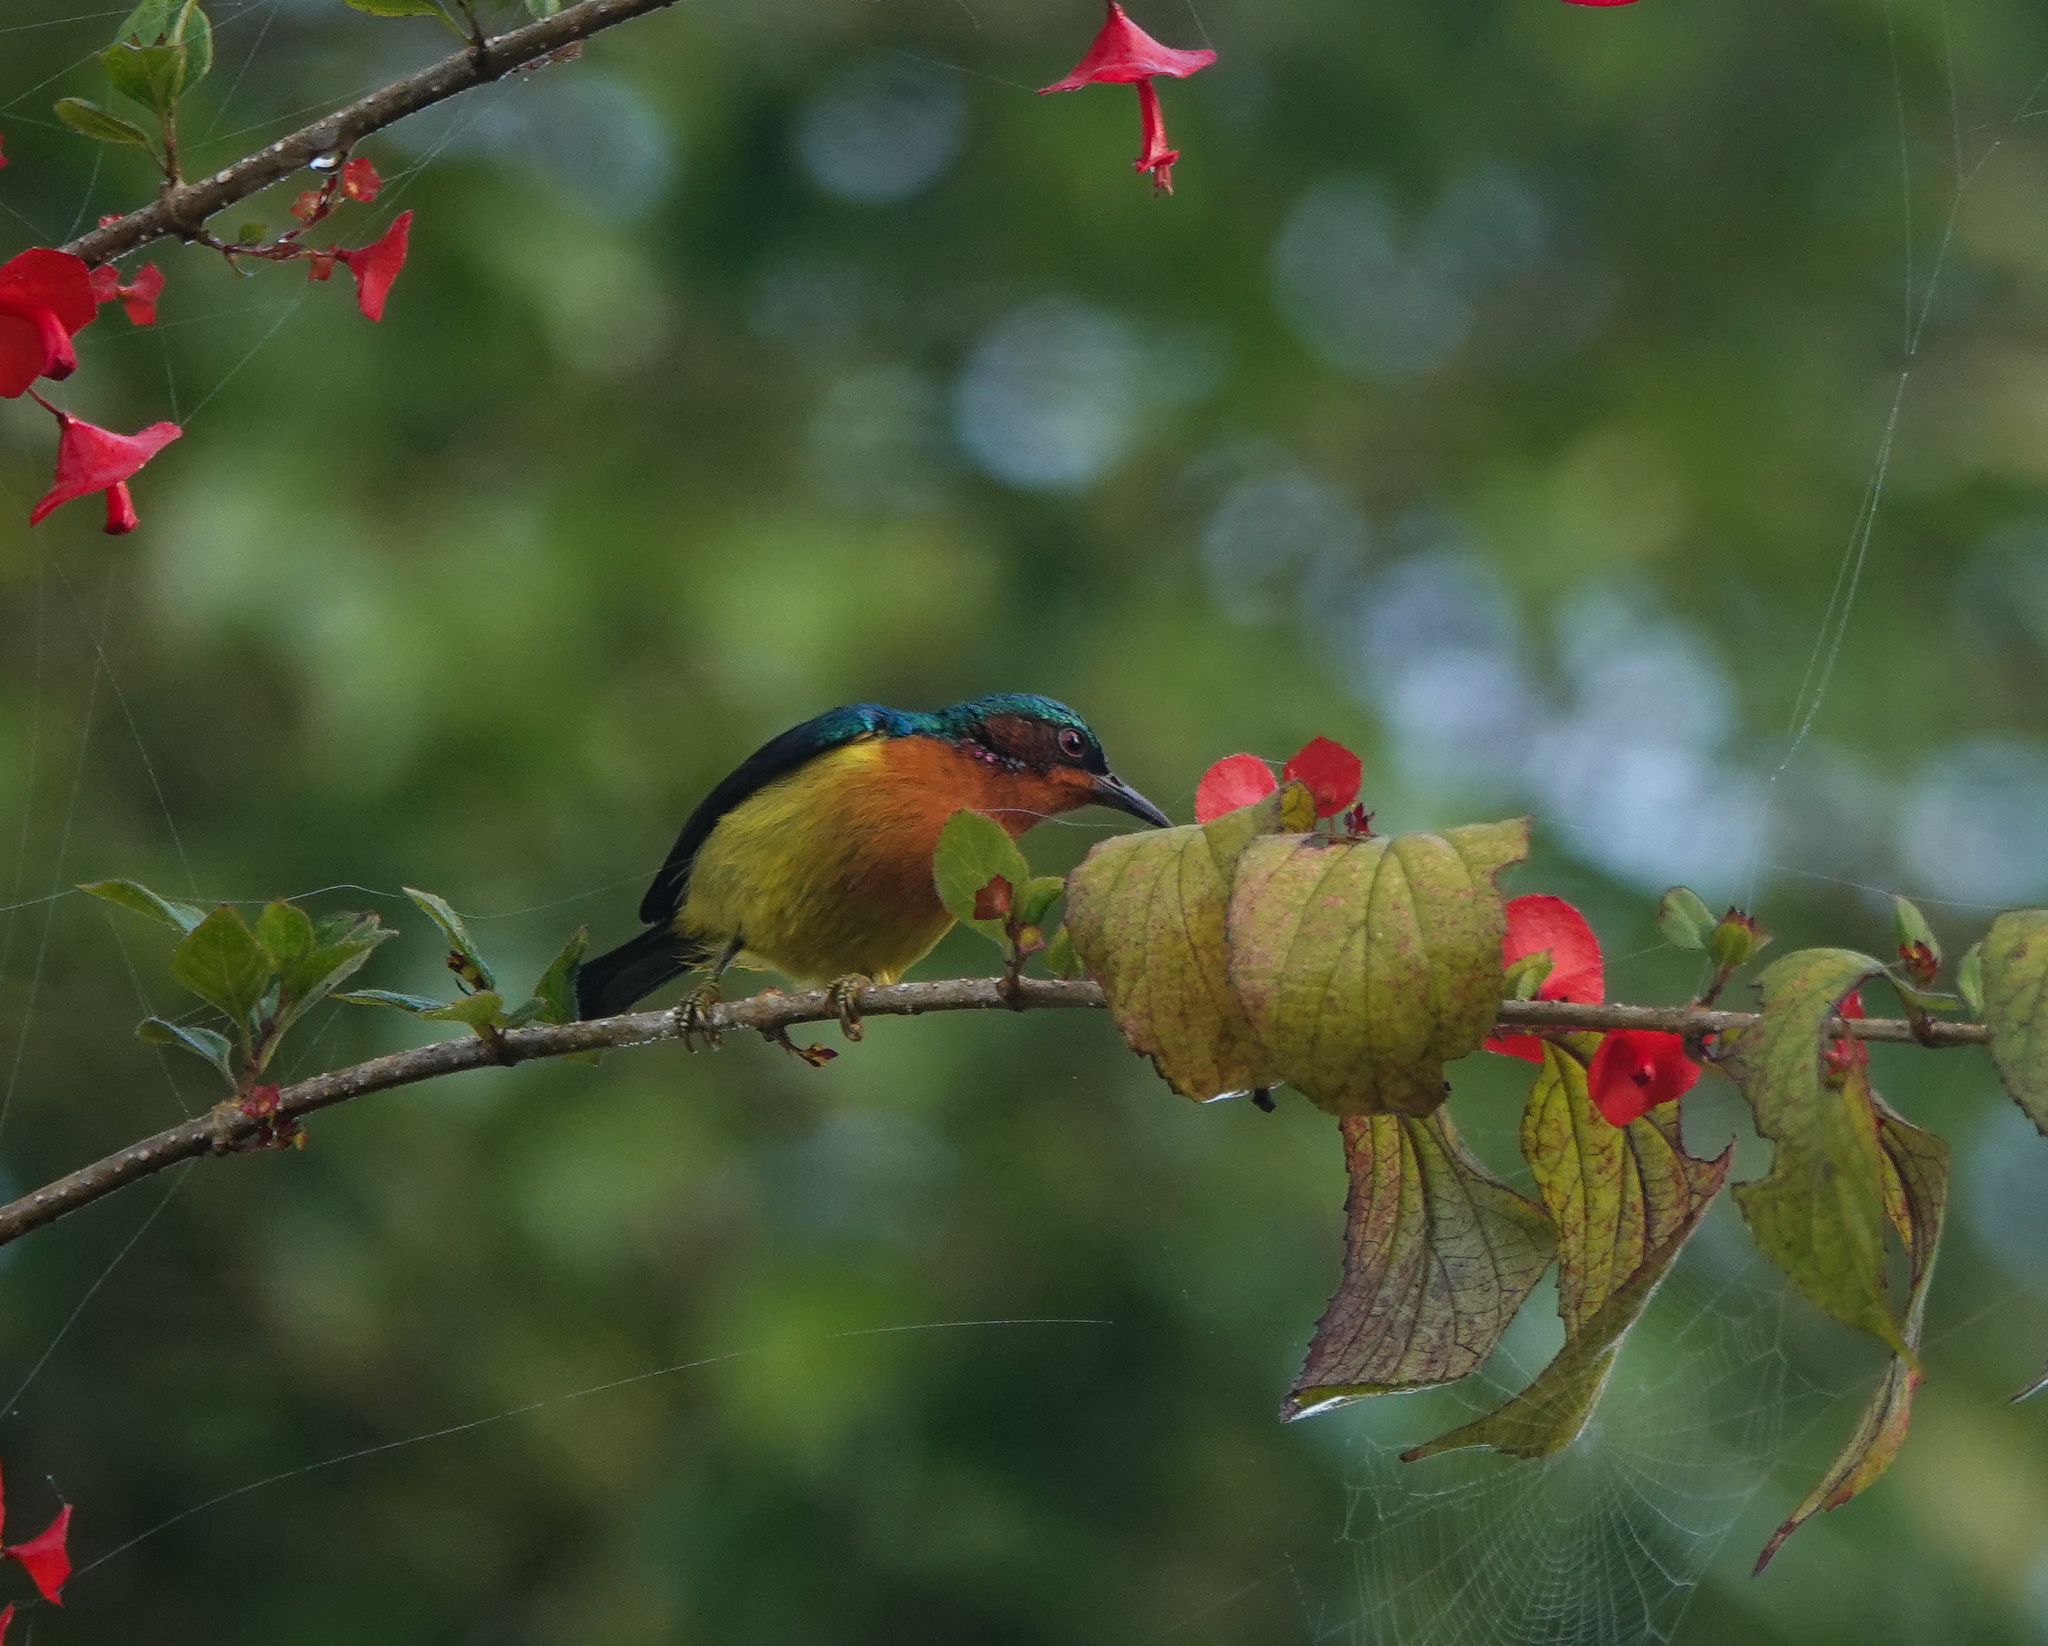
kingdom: Animalia
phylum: Chordata
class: Aves
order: Passeriformes
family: Nectariniidae
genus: Chalcoparia
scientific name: Chalcoparia singalensis
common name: Ruby-cheeked sunbird
